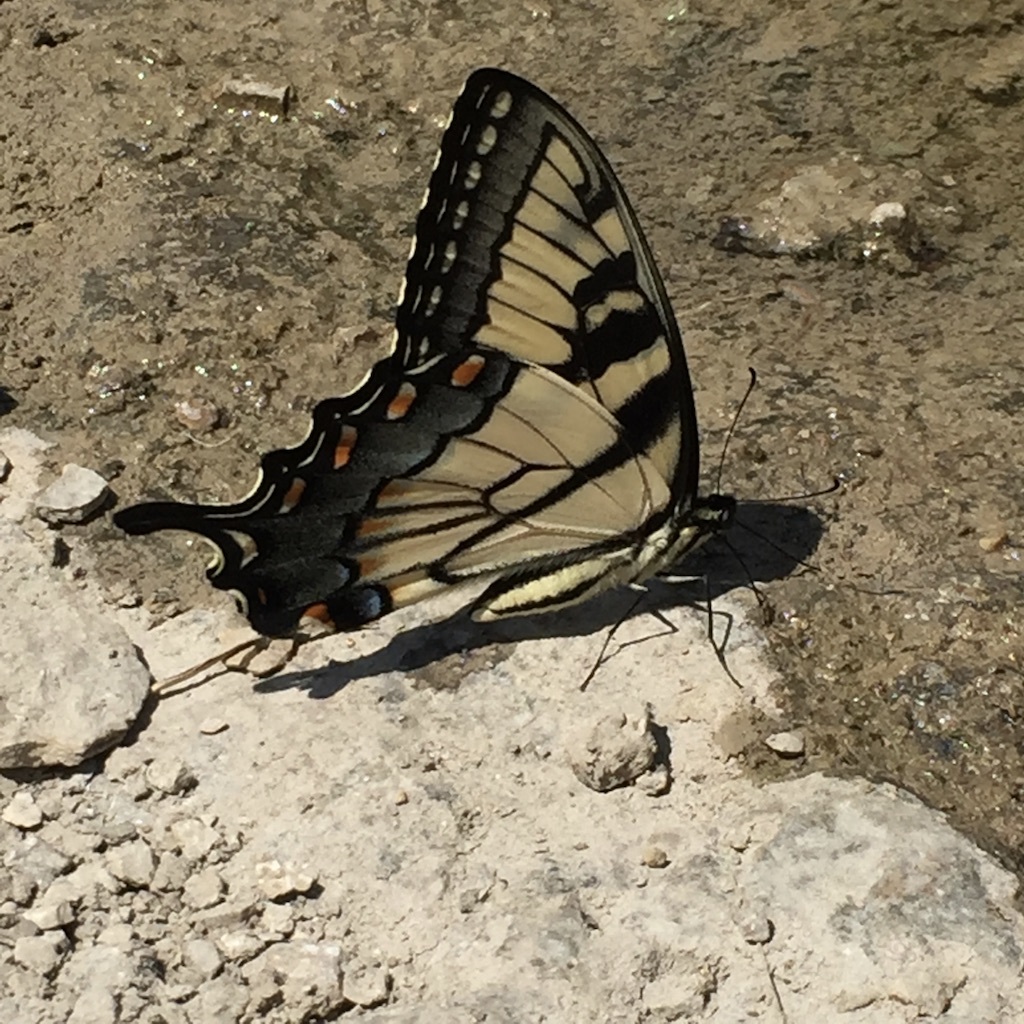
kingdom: Animalia
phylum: Arthropoda
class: Insecta
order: Lepidoptera
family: Papilionidae
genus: Papilio
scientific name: Papilio glaucus
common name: Tiger swallowtail
